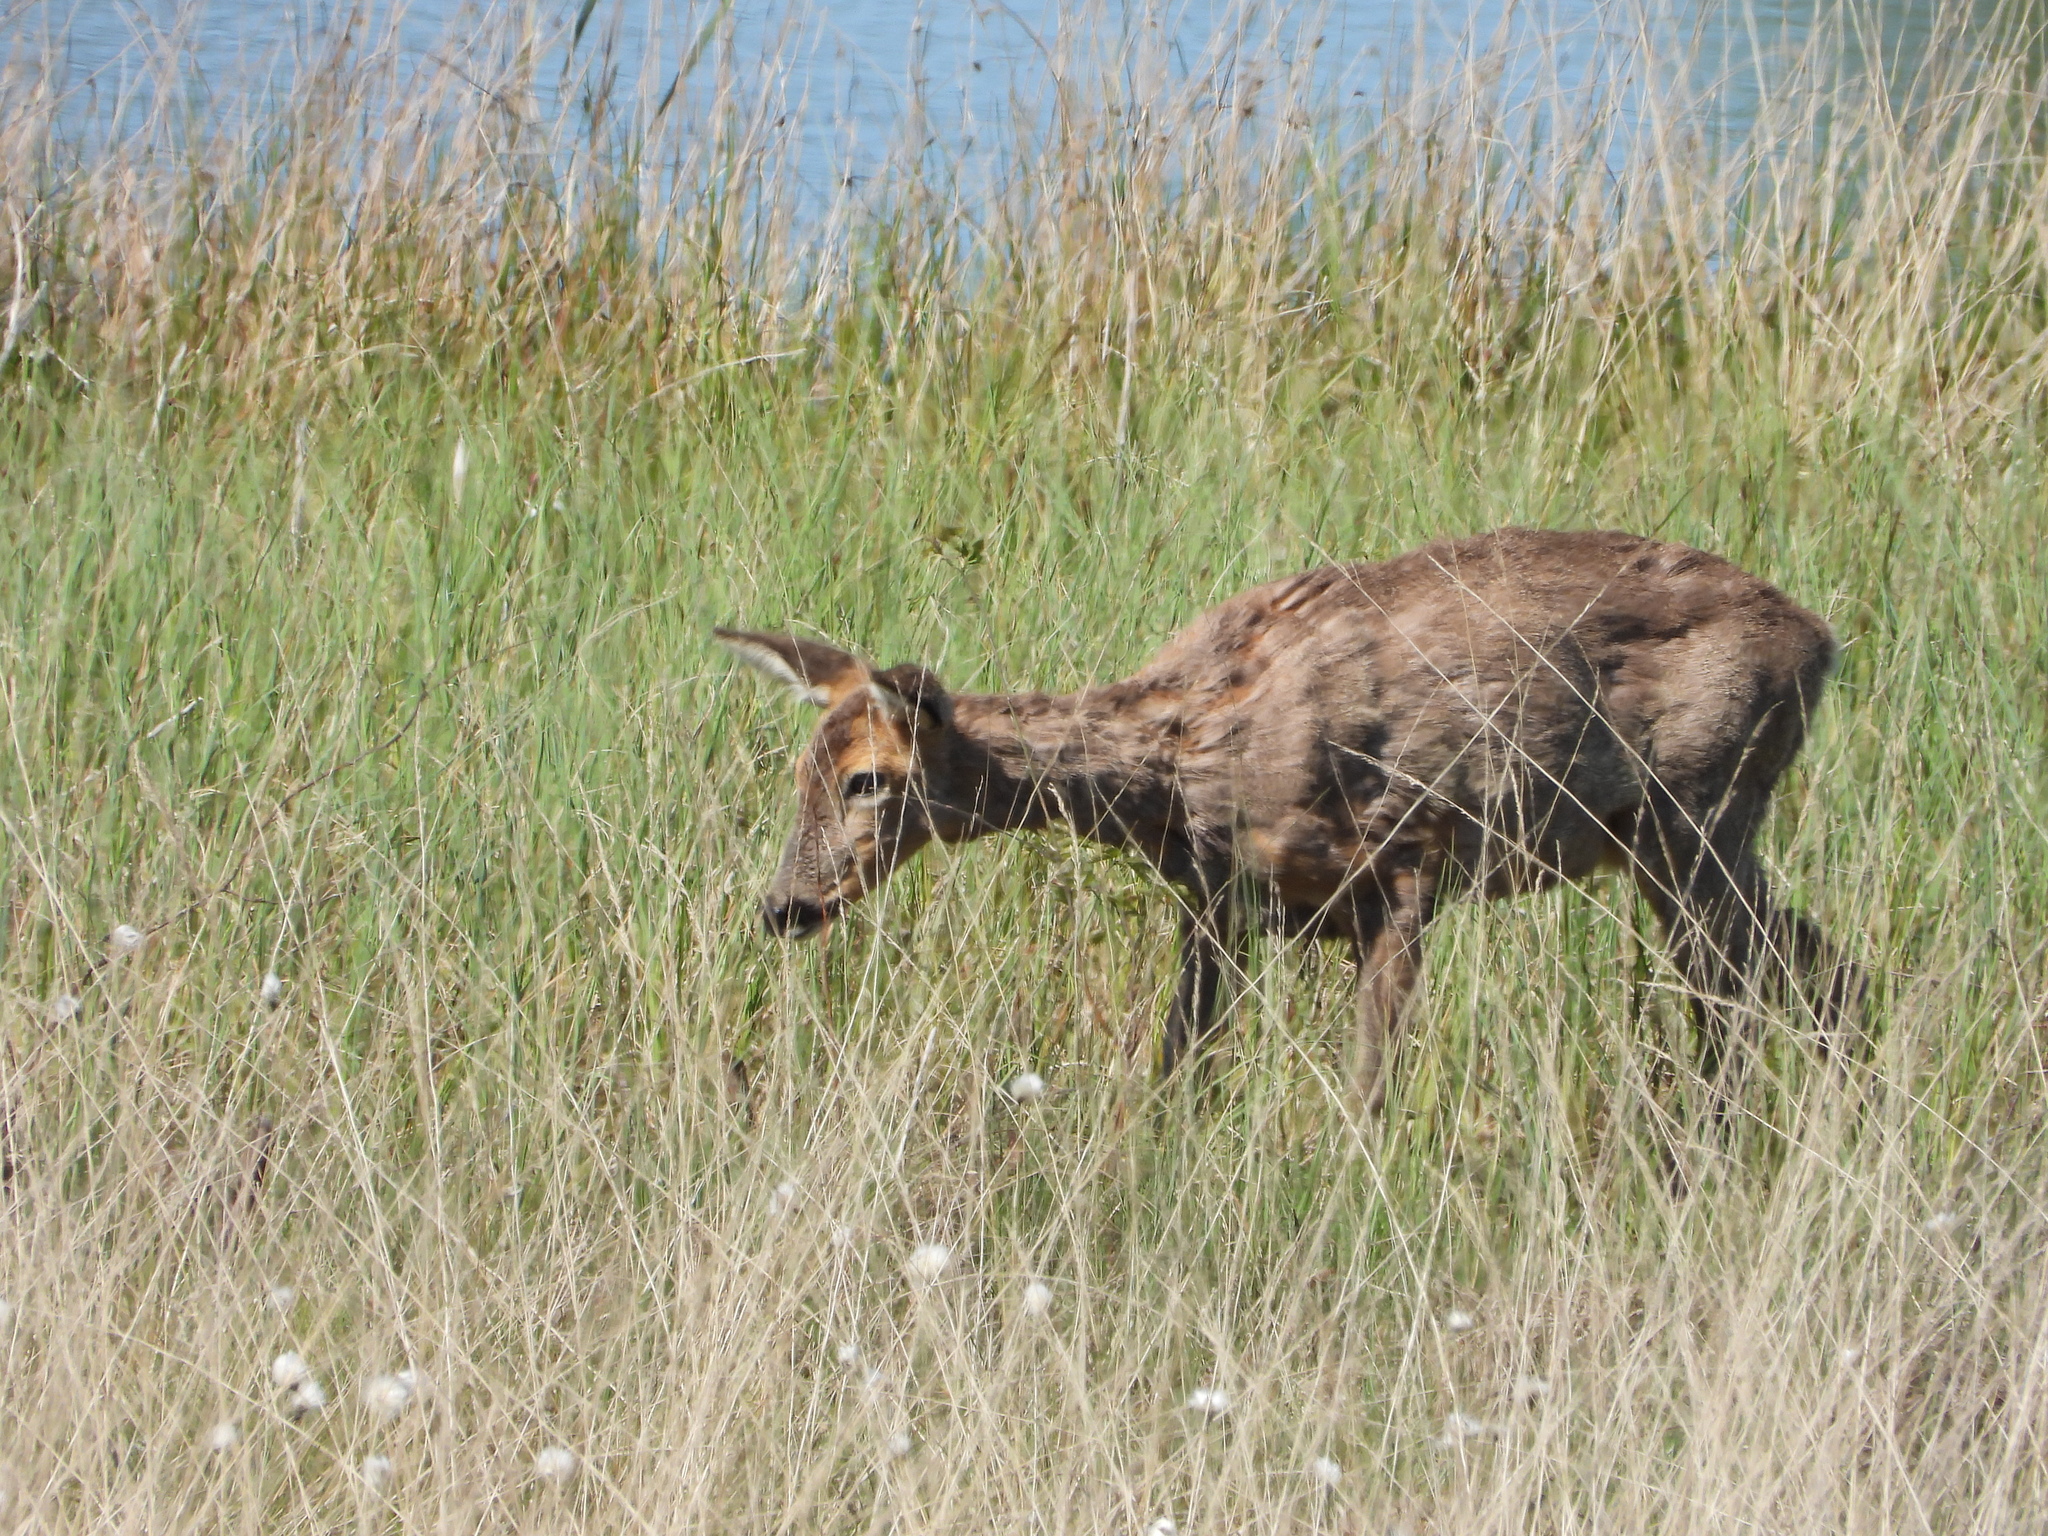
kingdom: Animalia
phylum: Chordata
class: Mammalia
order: Artiodactyla
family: Cervidae
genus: Capreolus
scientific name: Capreolus capreolus
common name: Western roe deer
